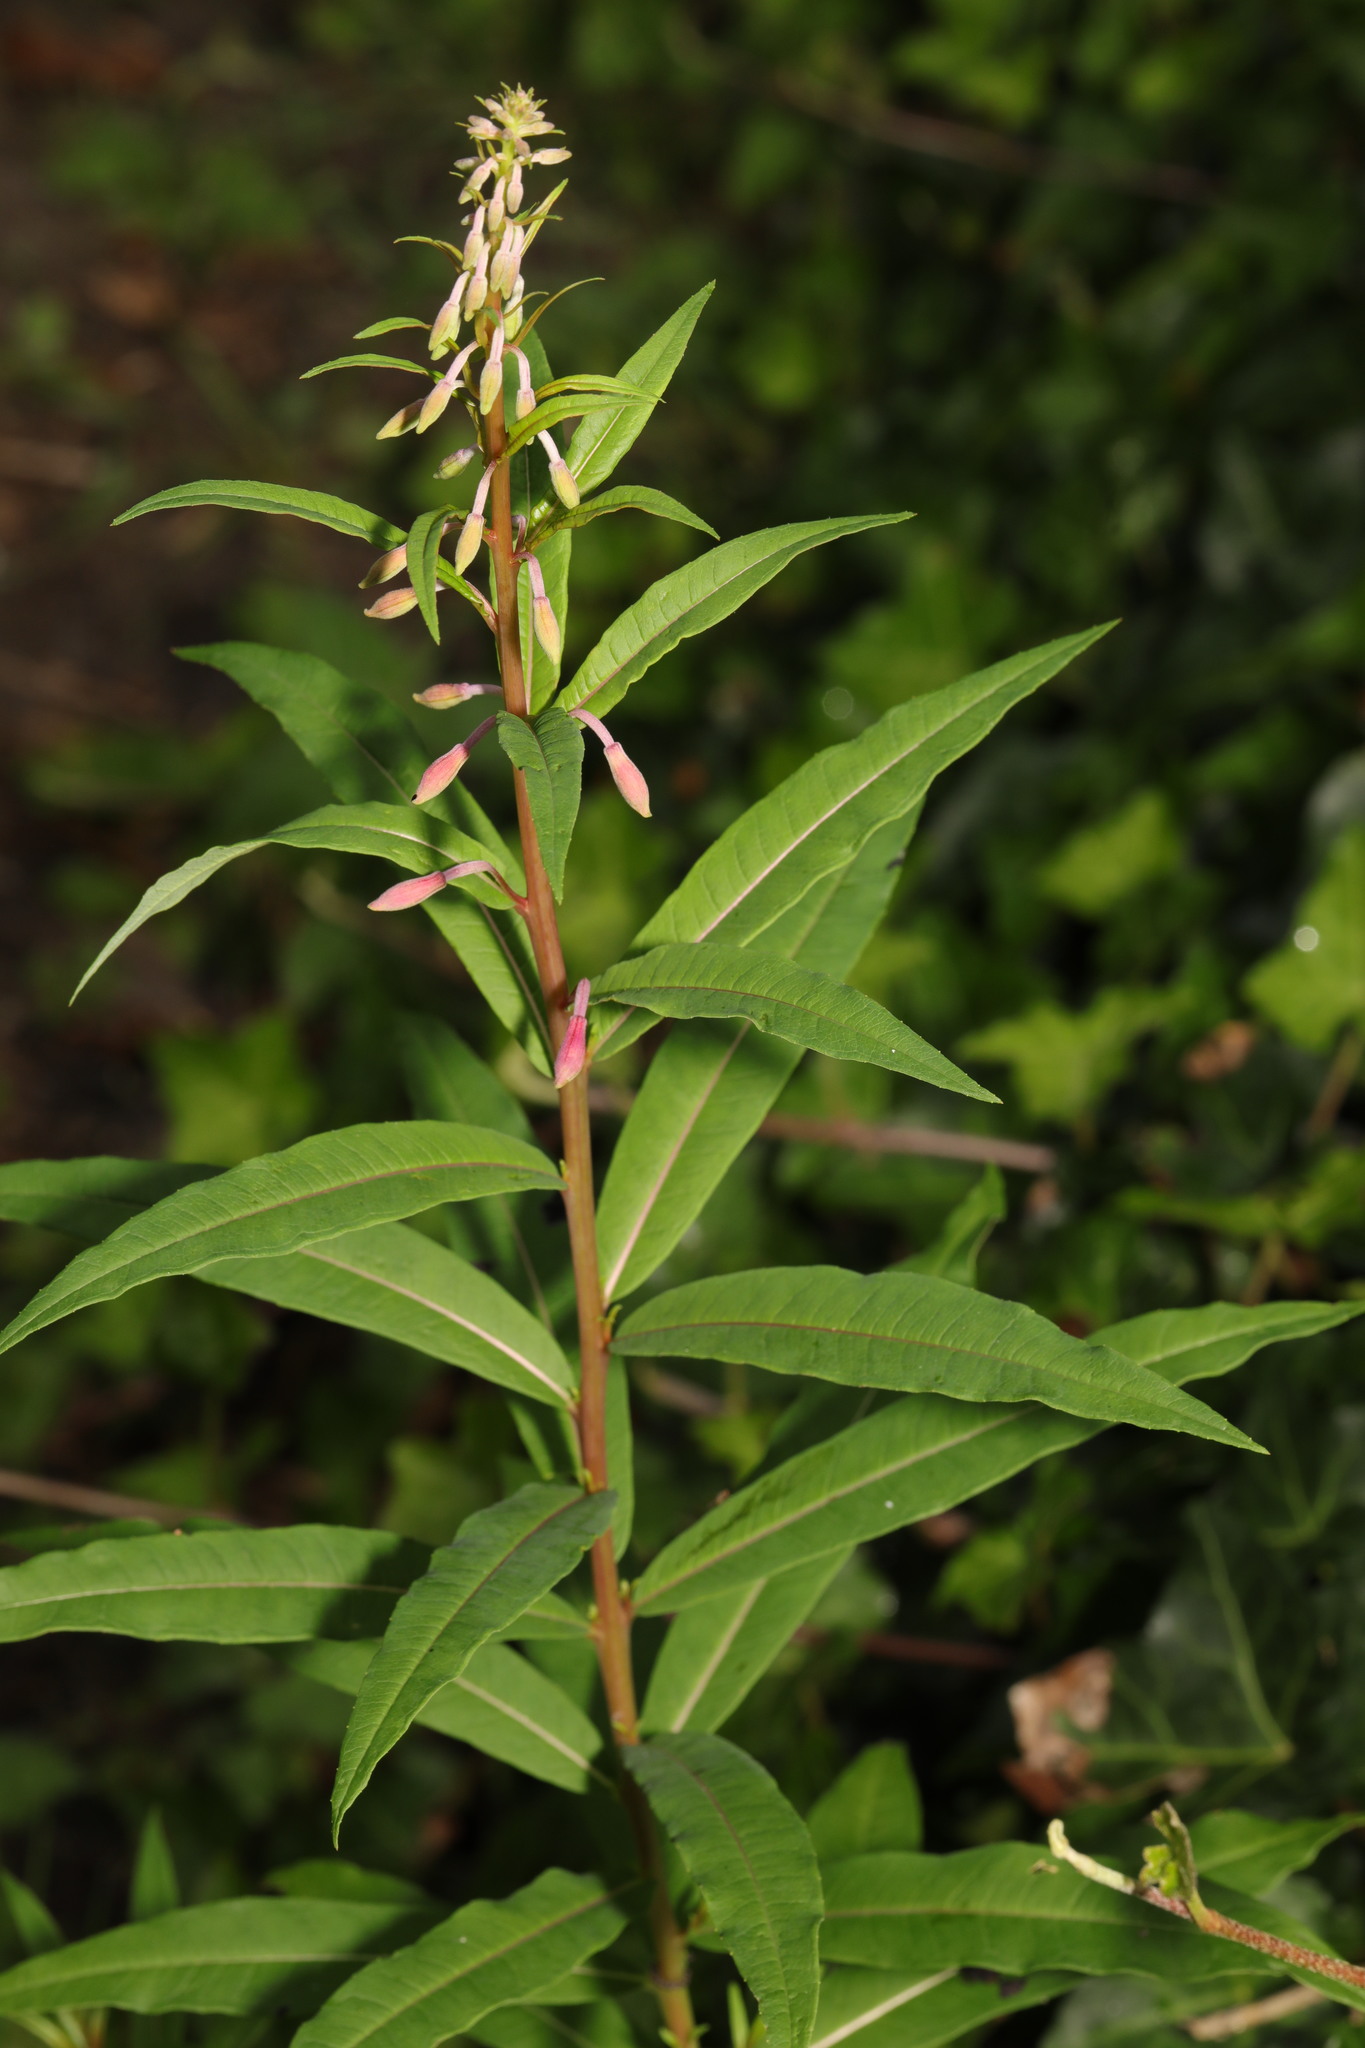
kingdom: Plantae
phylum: Tracheophyta
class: Magnoliopsida
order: Myrtales
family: Onagraceae
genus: Chamaenerion
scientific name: Chamaenerion angustifolium
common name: Fireweed
